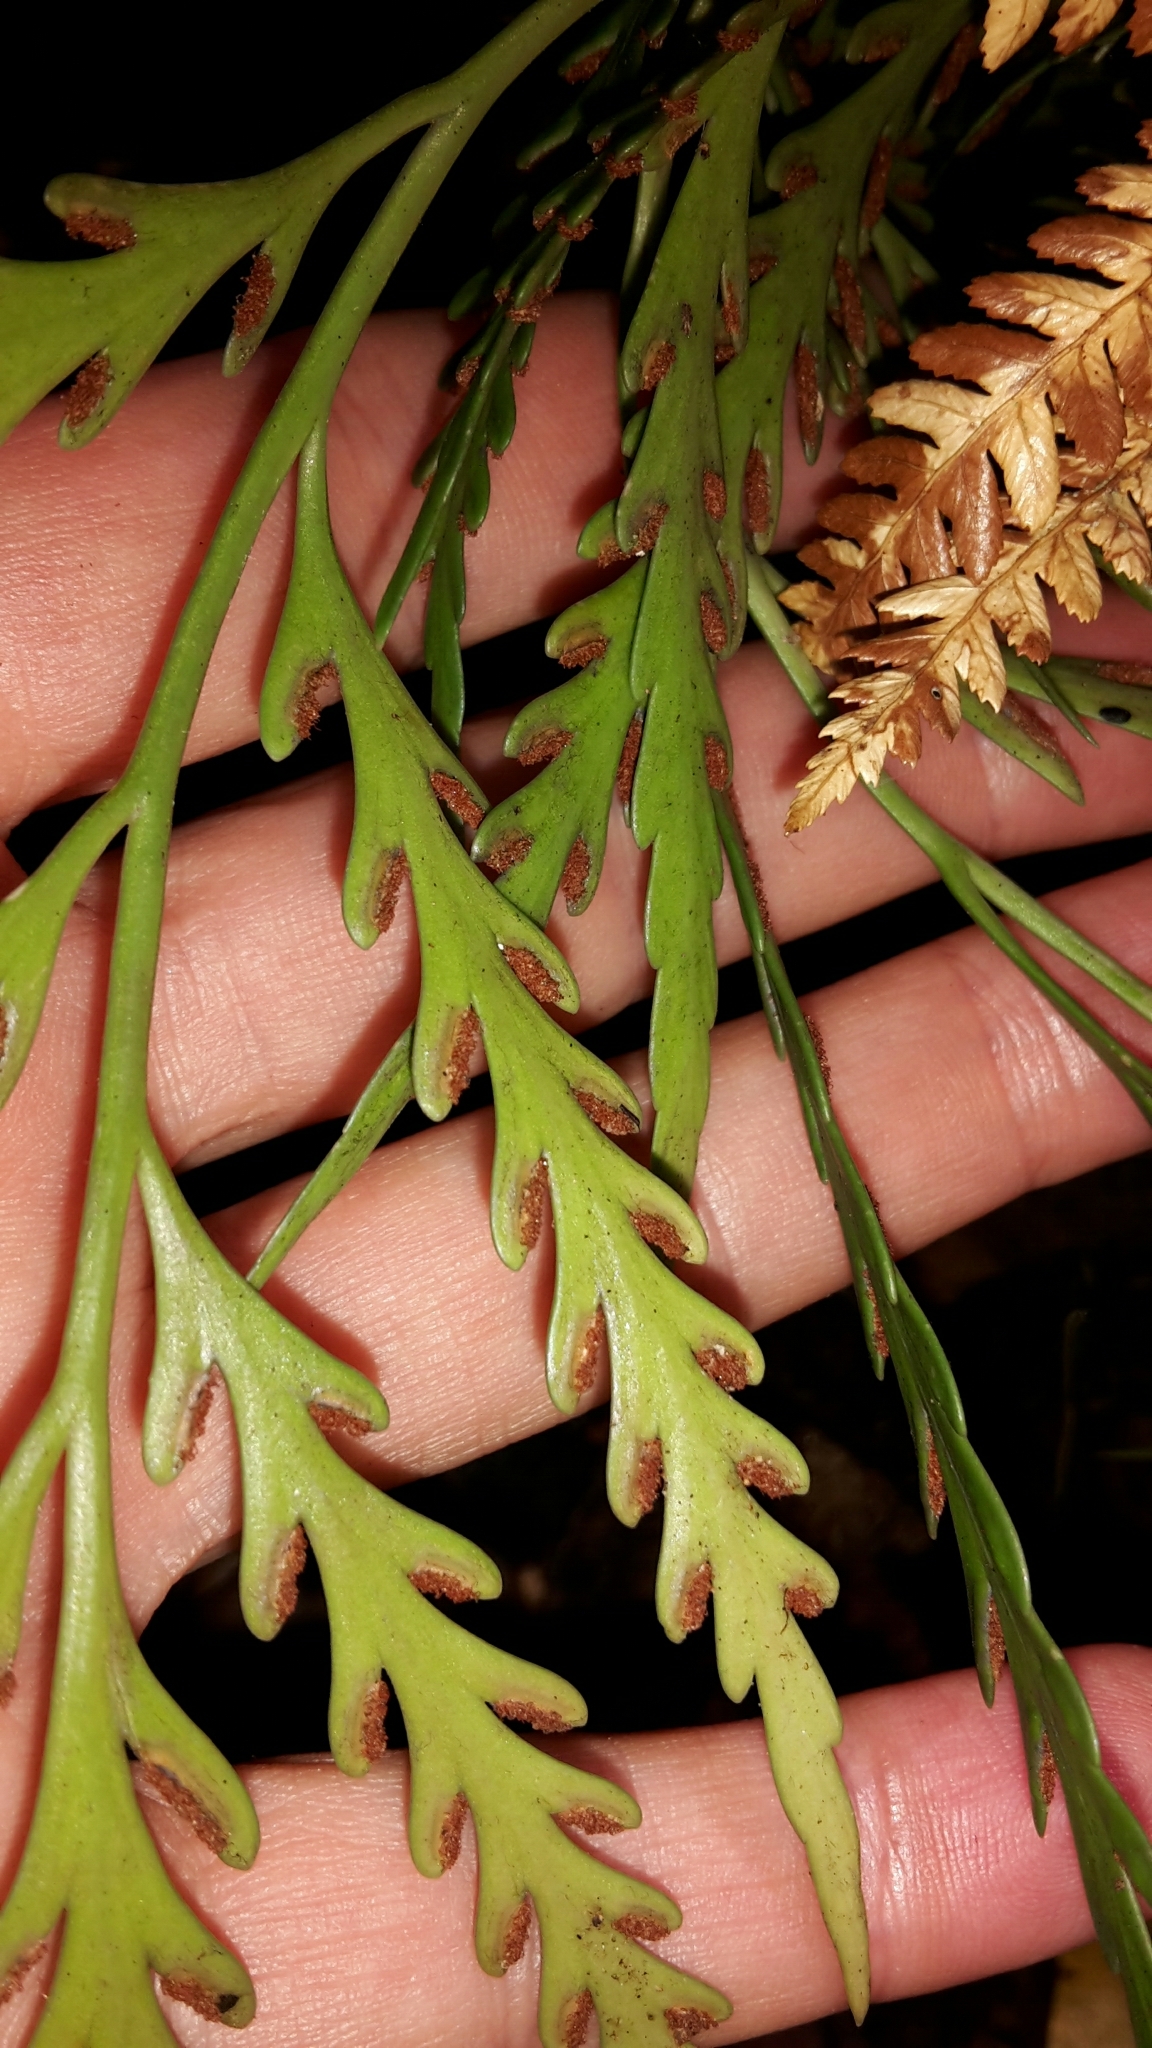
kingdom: Plantae
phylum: Tracheophyta
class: Polypodiopsida
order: Polypodiales
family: Aspleniaceae
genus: Asplenium
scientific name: Asplenium flaccidum
